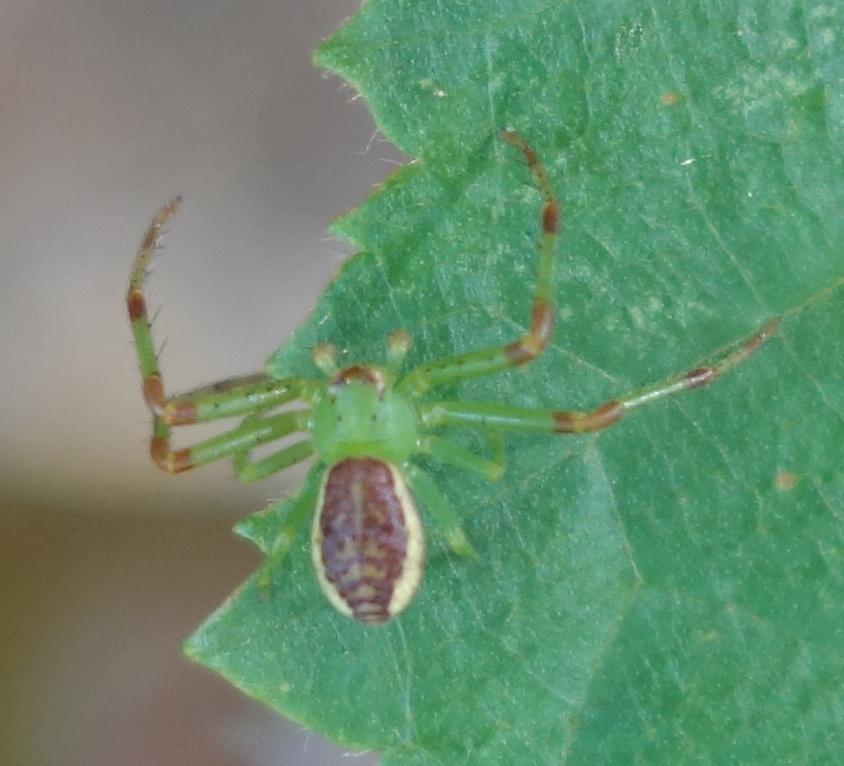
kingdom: Animalia
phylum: Arthropoda
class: Arachnida
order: Araneae
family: Thomisidae
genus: Diaea
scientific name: Diaea dorsata
